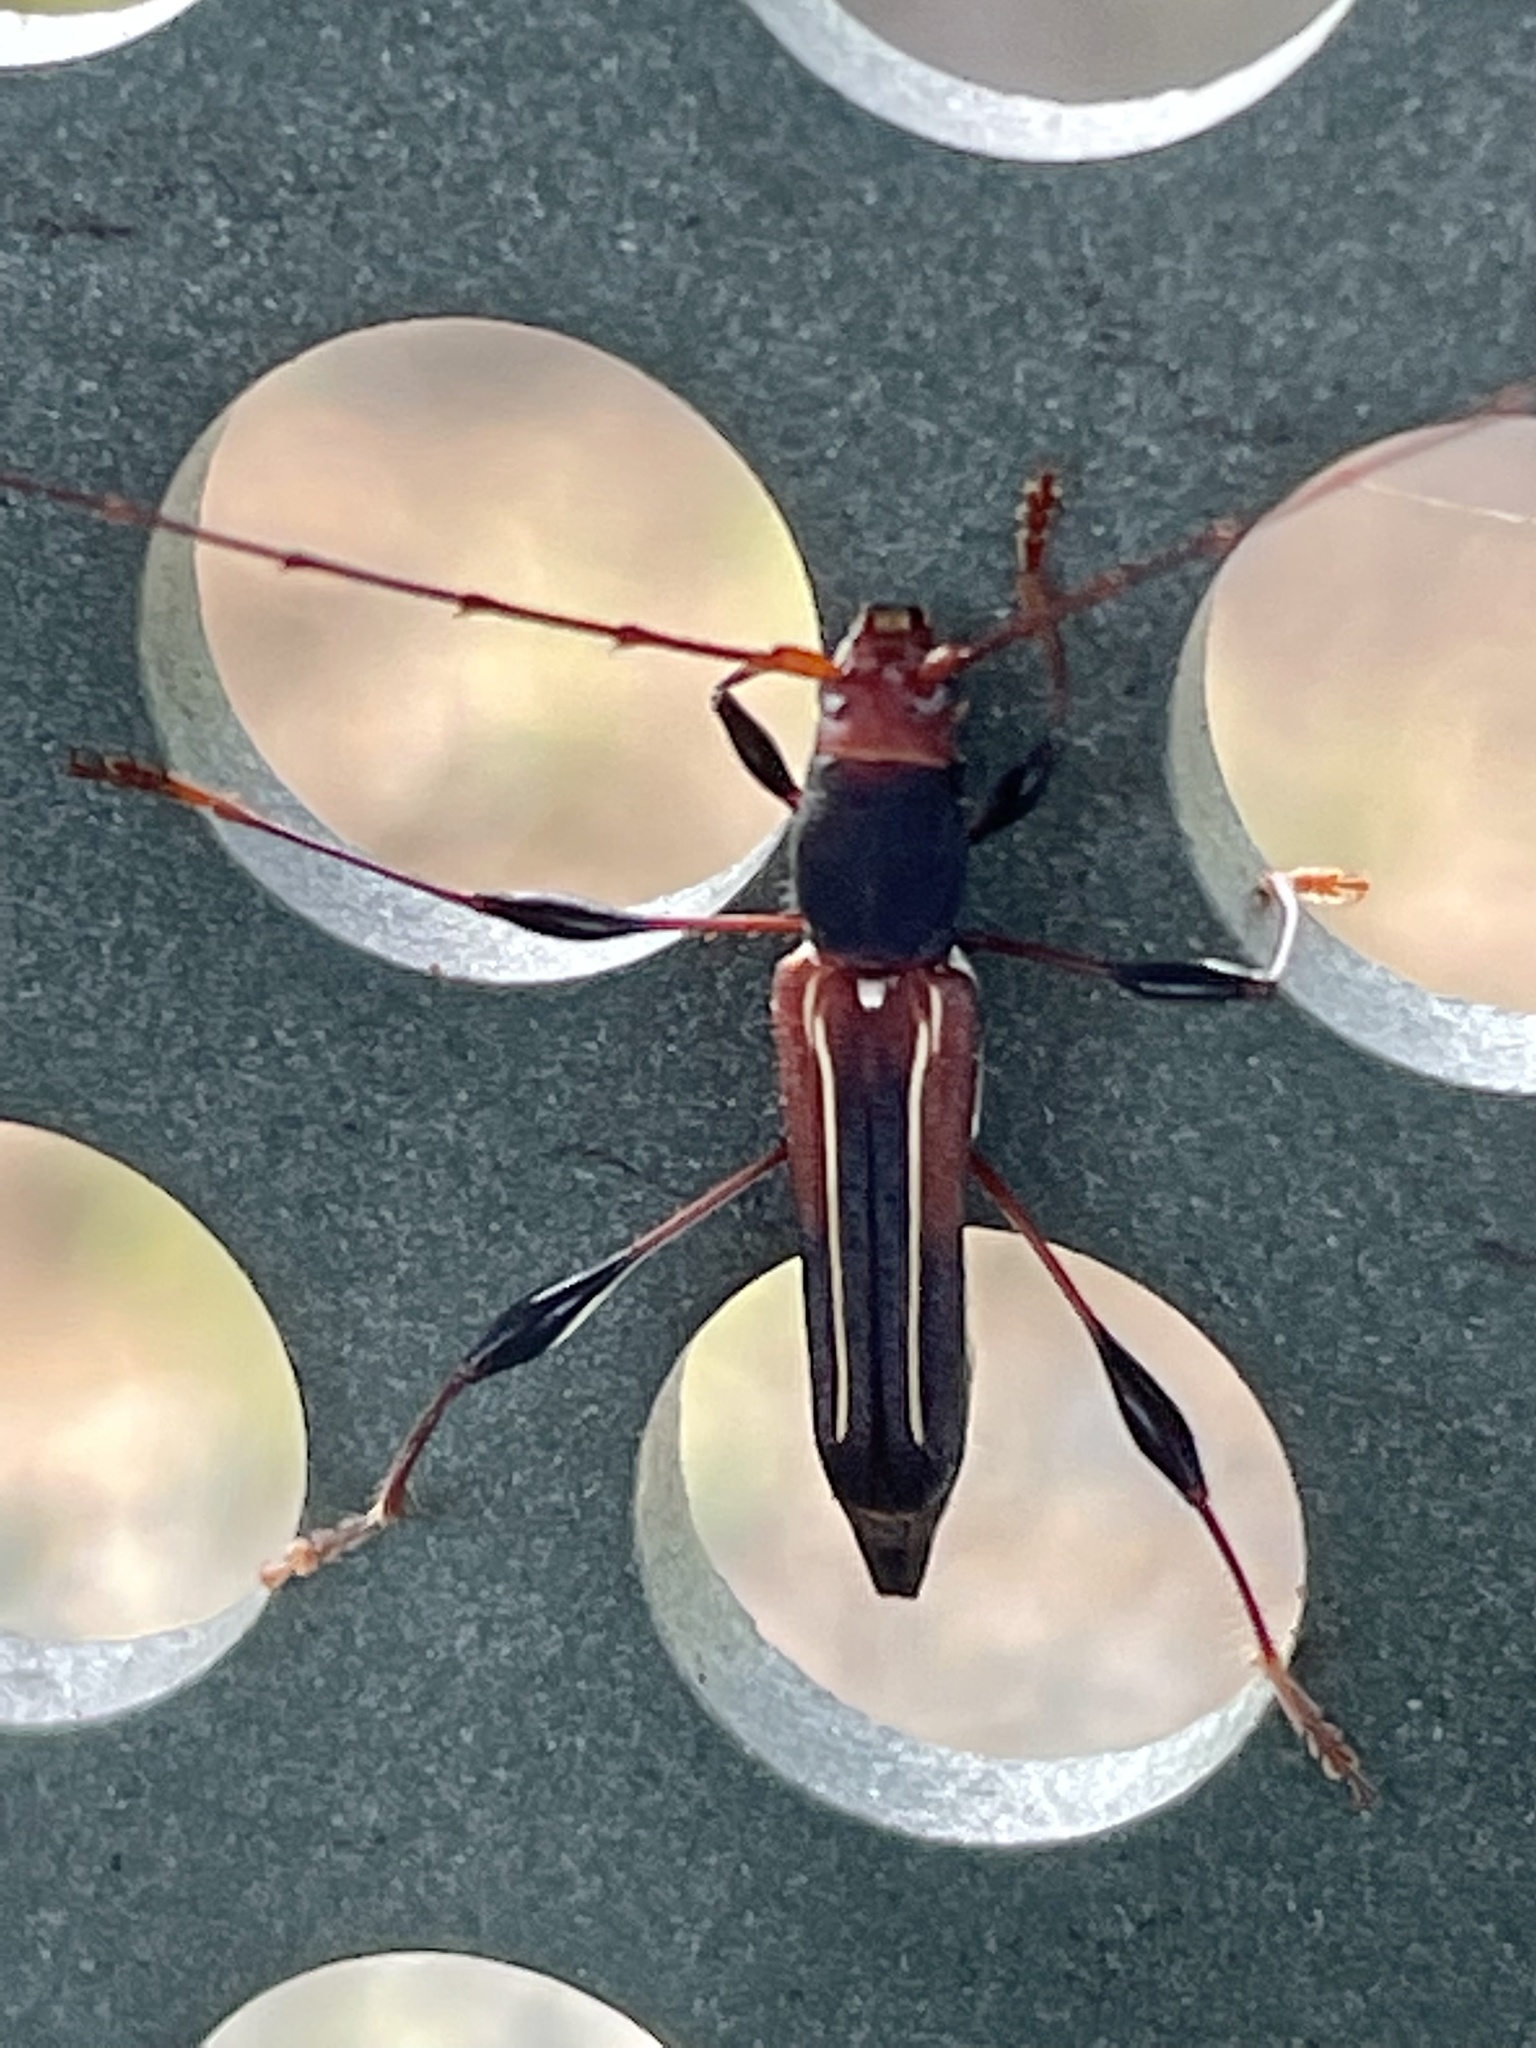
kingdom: Animalia
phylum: Arthropoda
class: Insecta
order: Coleoptera
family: Cerambycidae
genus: Amphirhoe
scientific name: Amphirhoe sloanei
